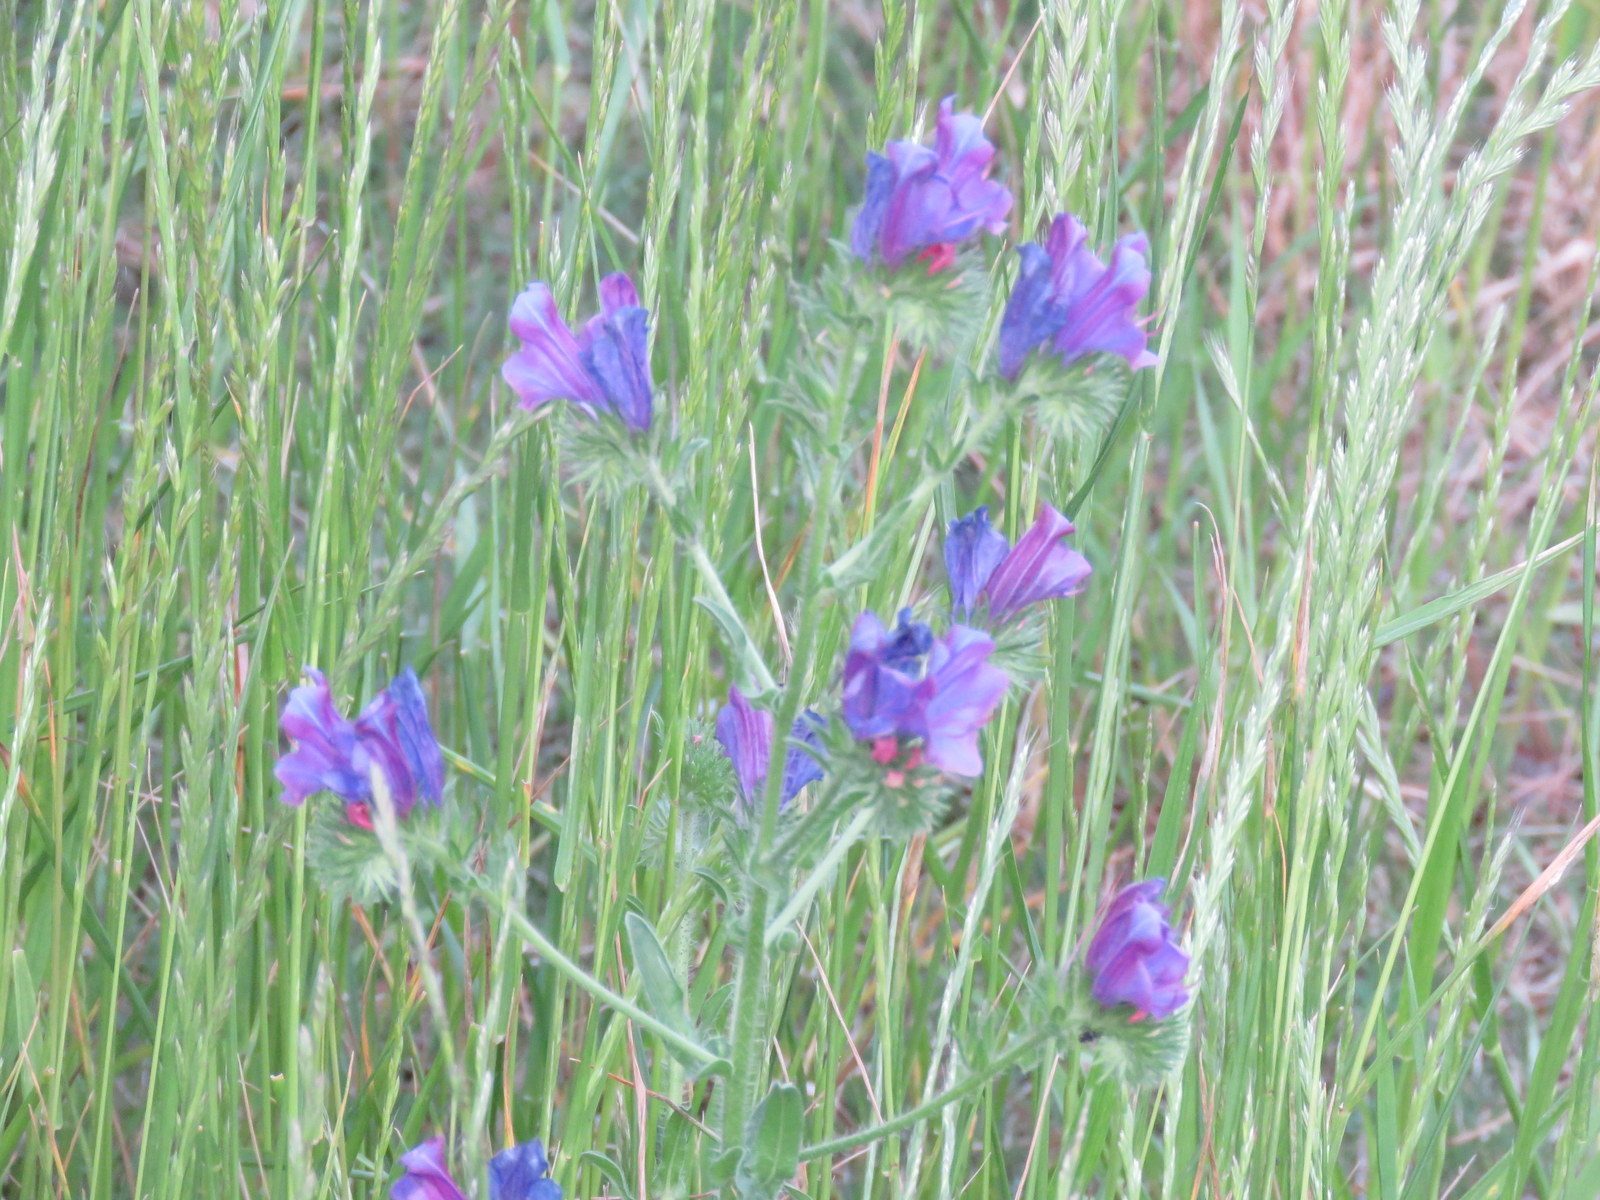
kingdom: Plantae
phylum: Tracheophyta
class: Magnoliopsida
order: Boraginales
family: Boraginaceae
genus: Echium
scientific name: Echium plantagineum
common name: Purple viper's-bugloss
